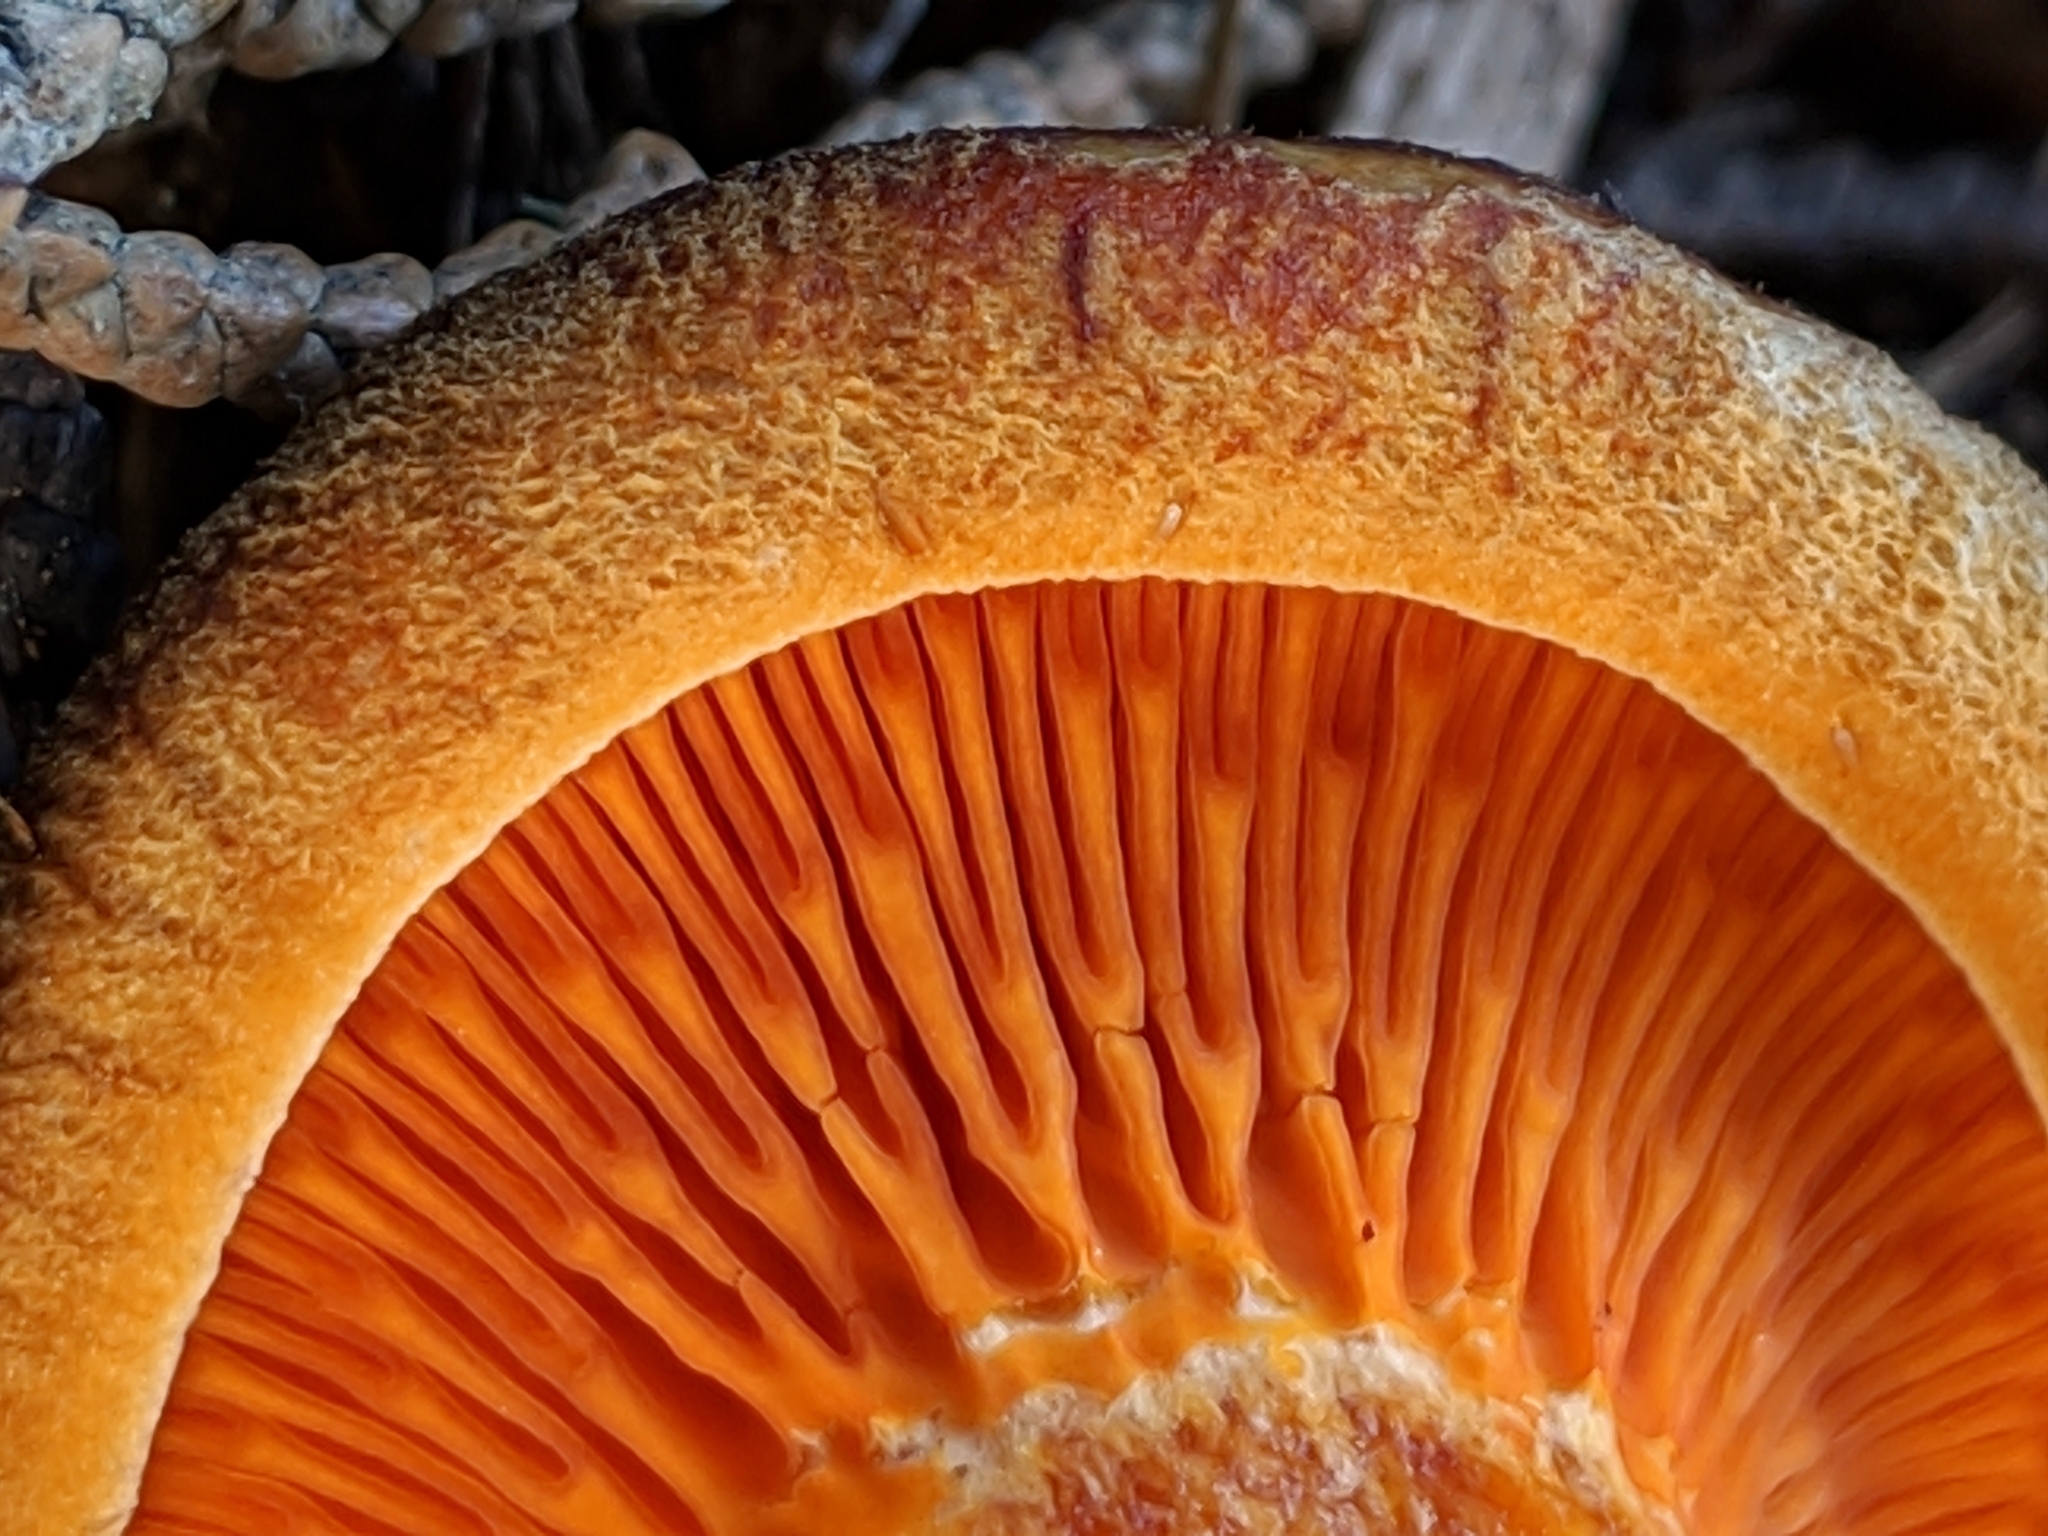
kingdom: Fungi
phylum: Basidiomycota
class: Agaricomycetes
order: Boletales
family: Hygrophoropsidaceae
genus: Hygrophoropsis
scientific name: Hygrophoropsis aurantiaca
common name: False chanterelle
